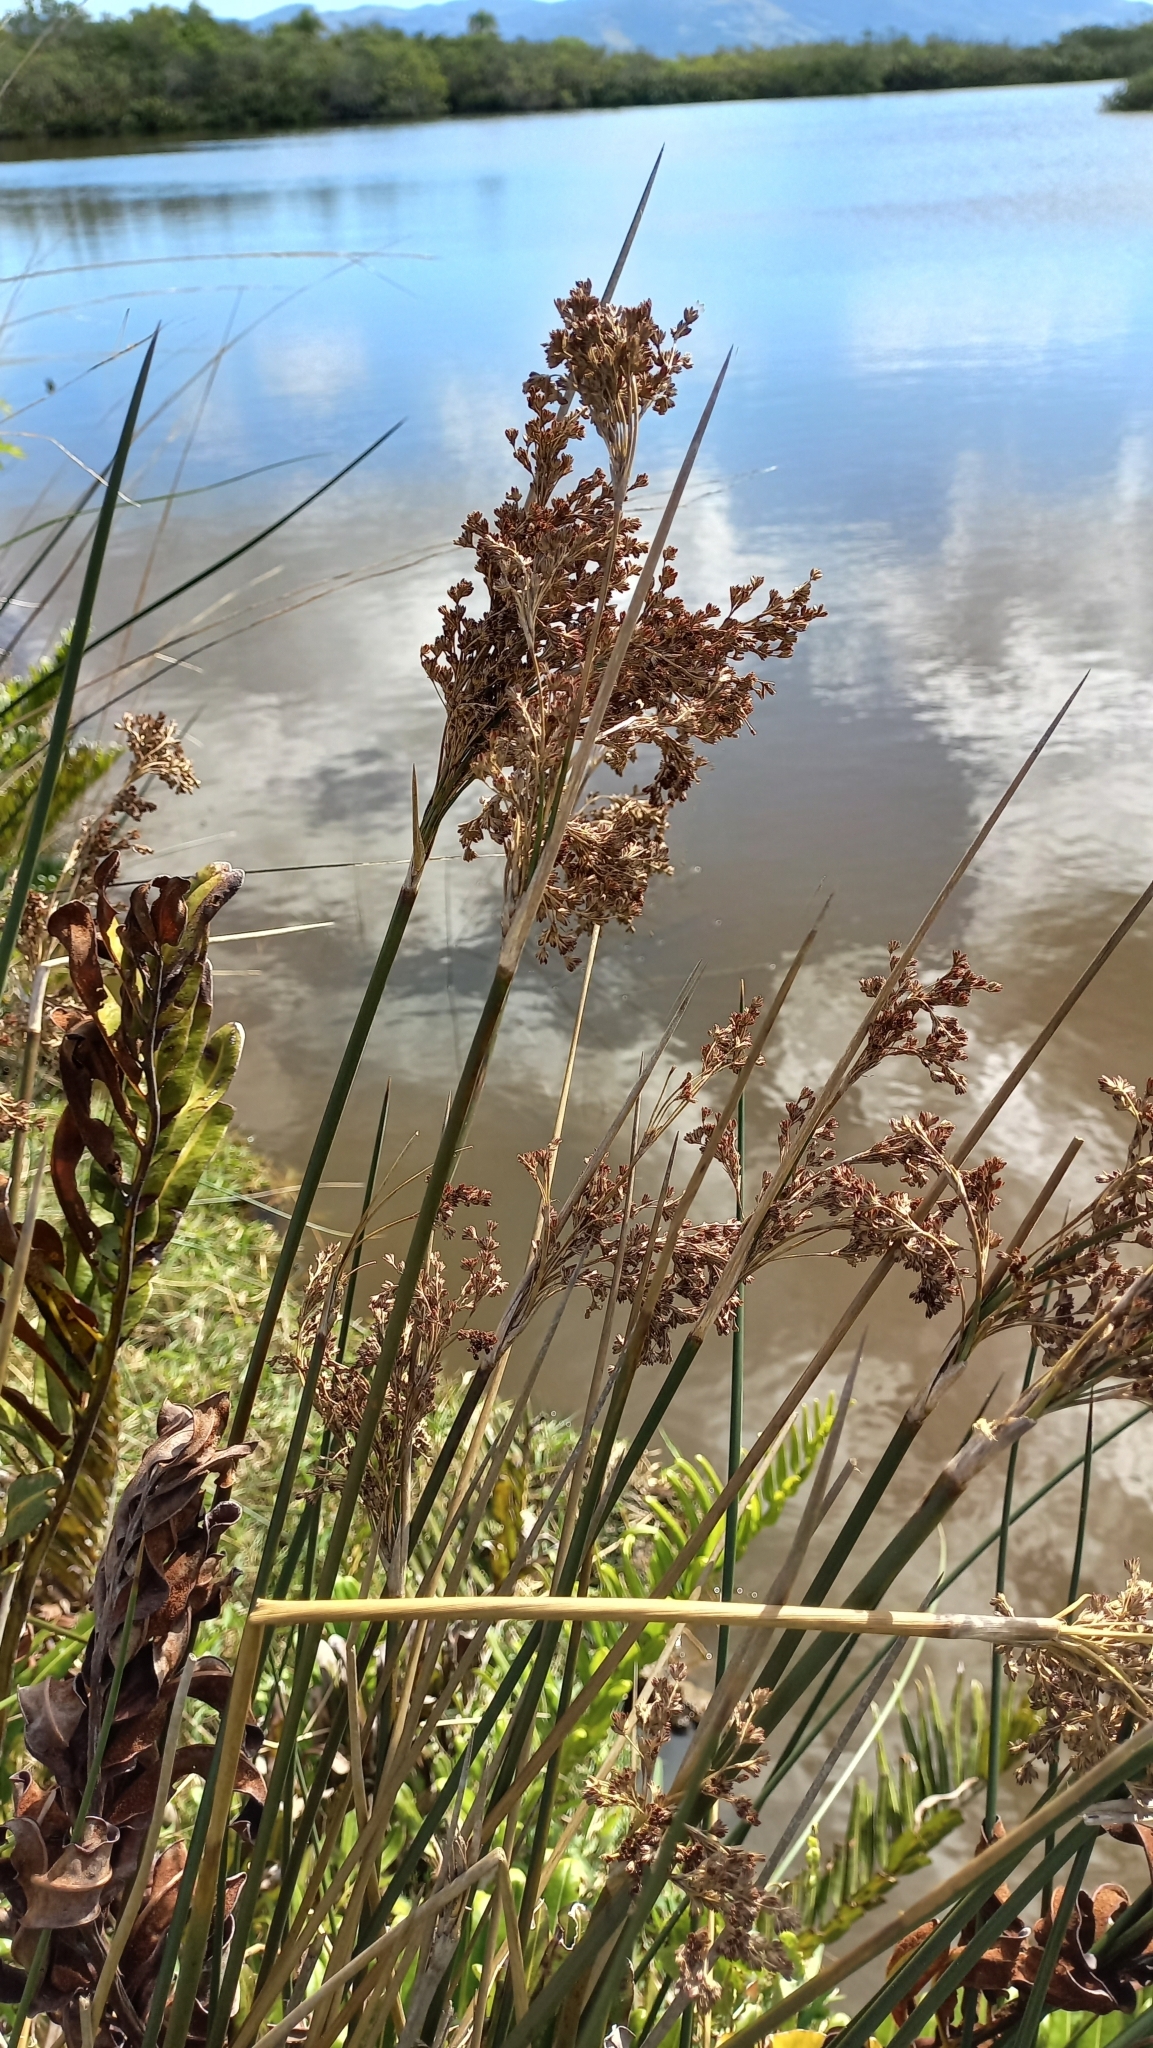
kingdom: Plantae
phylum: Tracheophyta
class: Liliopsida
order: Poales
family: Juncaceae
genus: Juncus
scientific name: Juncus kraussii
